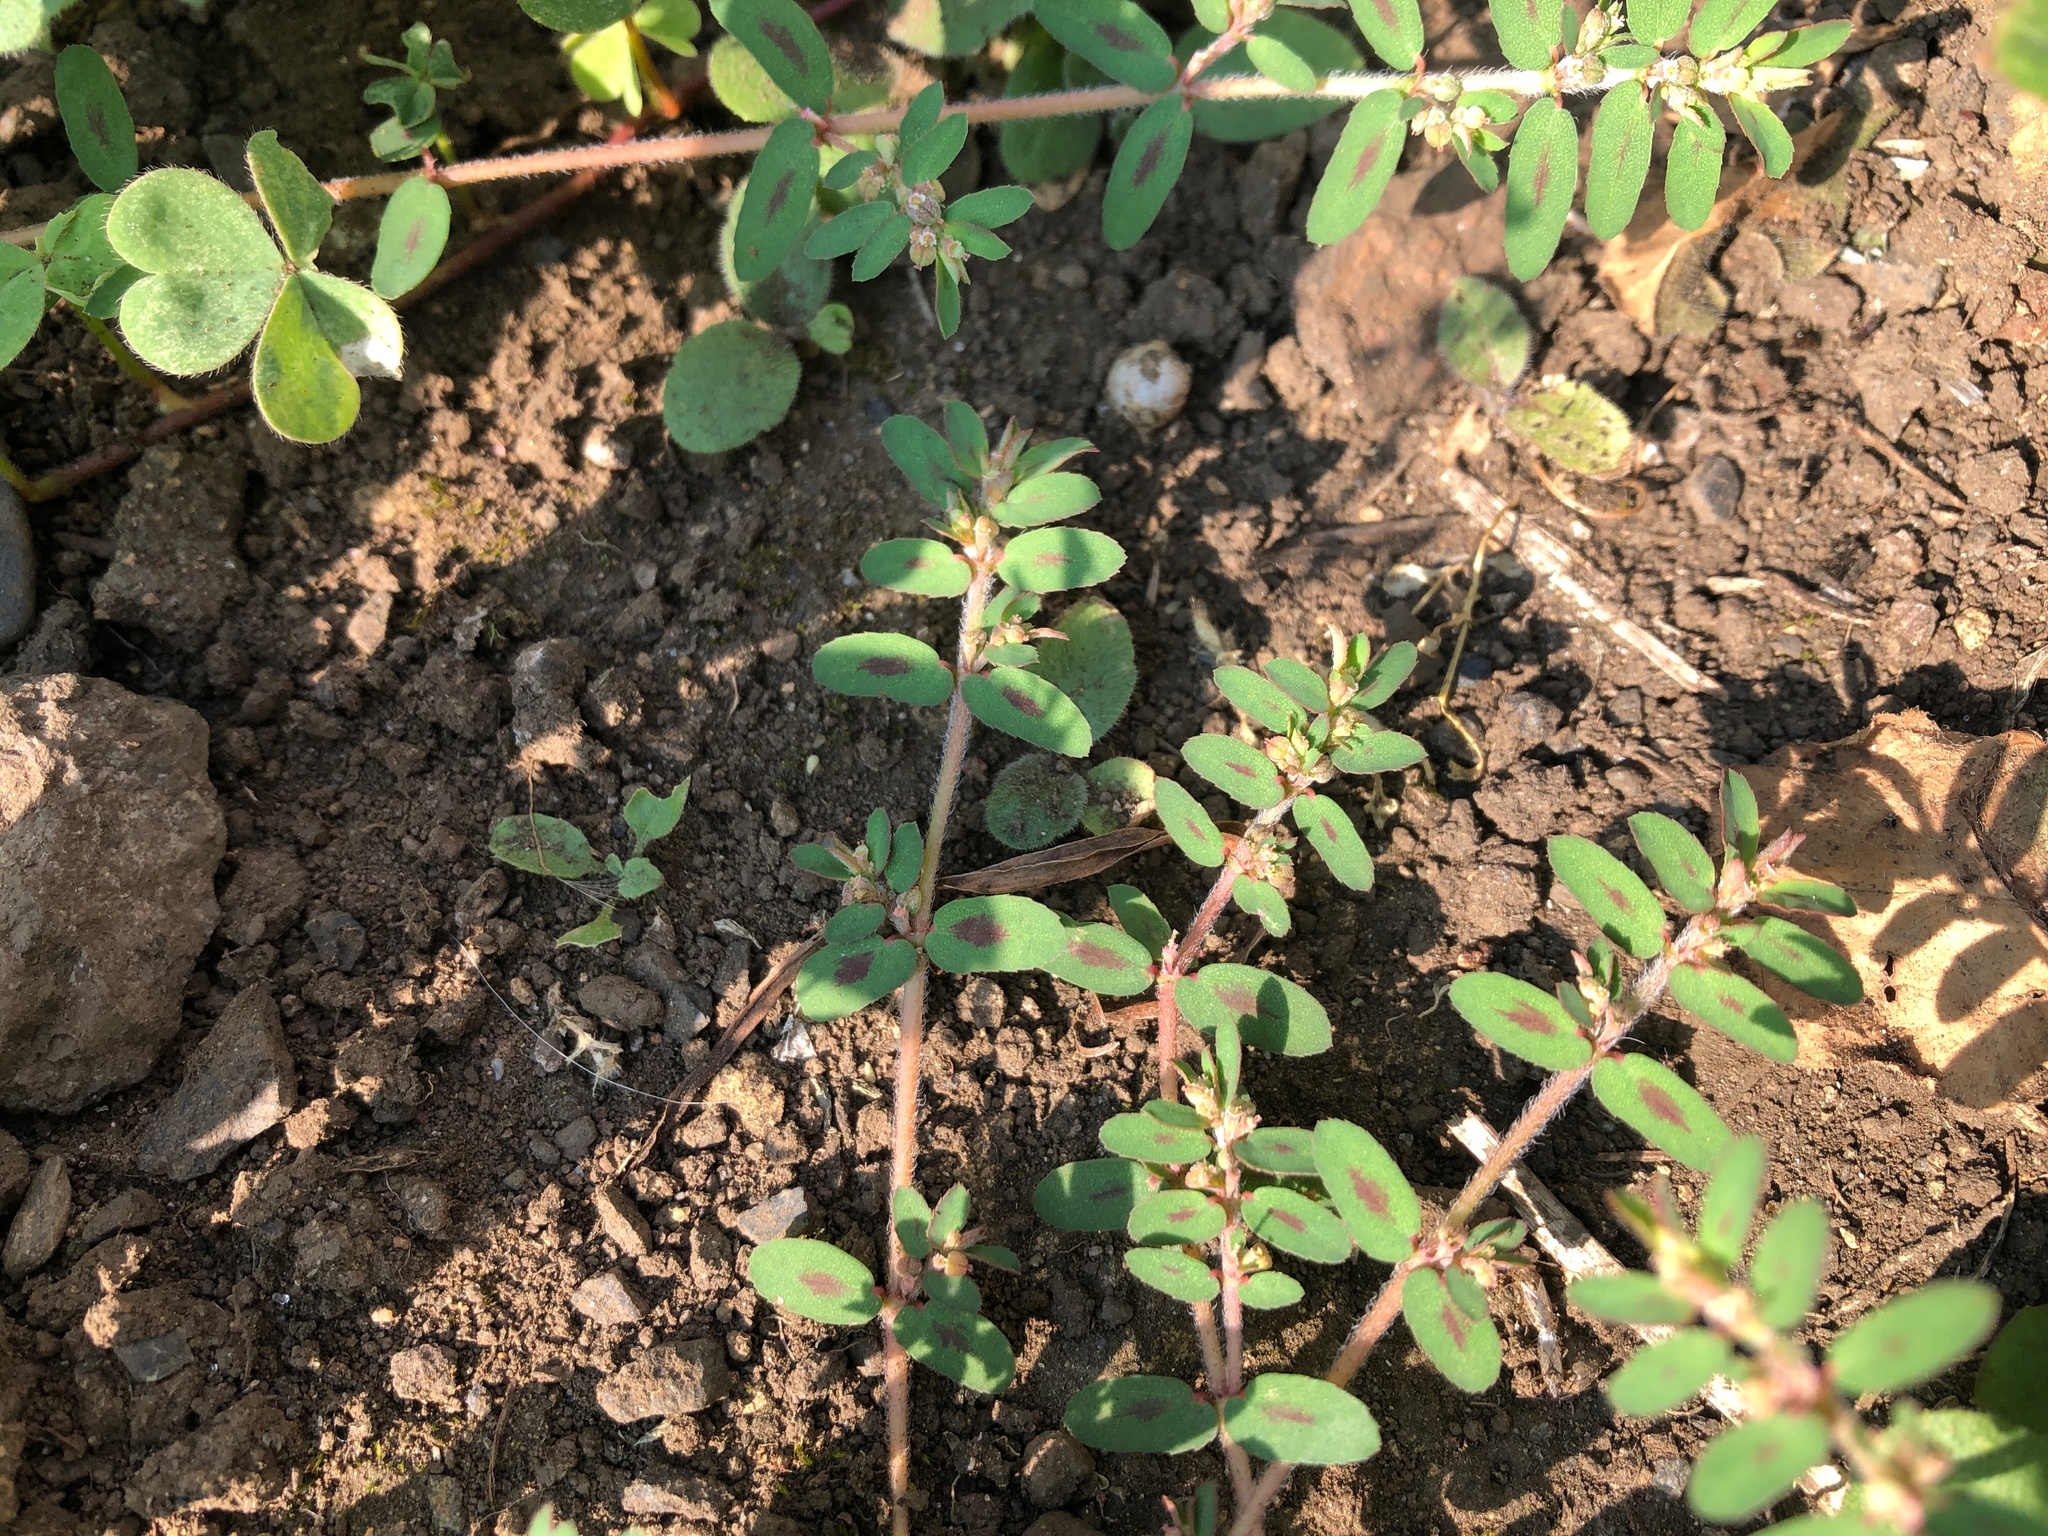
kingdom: Plantae
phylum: Tracheophyta
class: Magnoliopsida
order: Malpighiales
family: Euphorbiaceae
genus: Euphorbia
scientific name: Euphorbia maculata
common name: Spotted spurge
